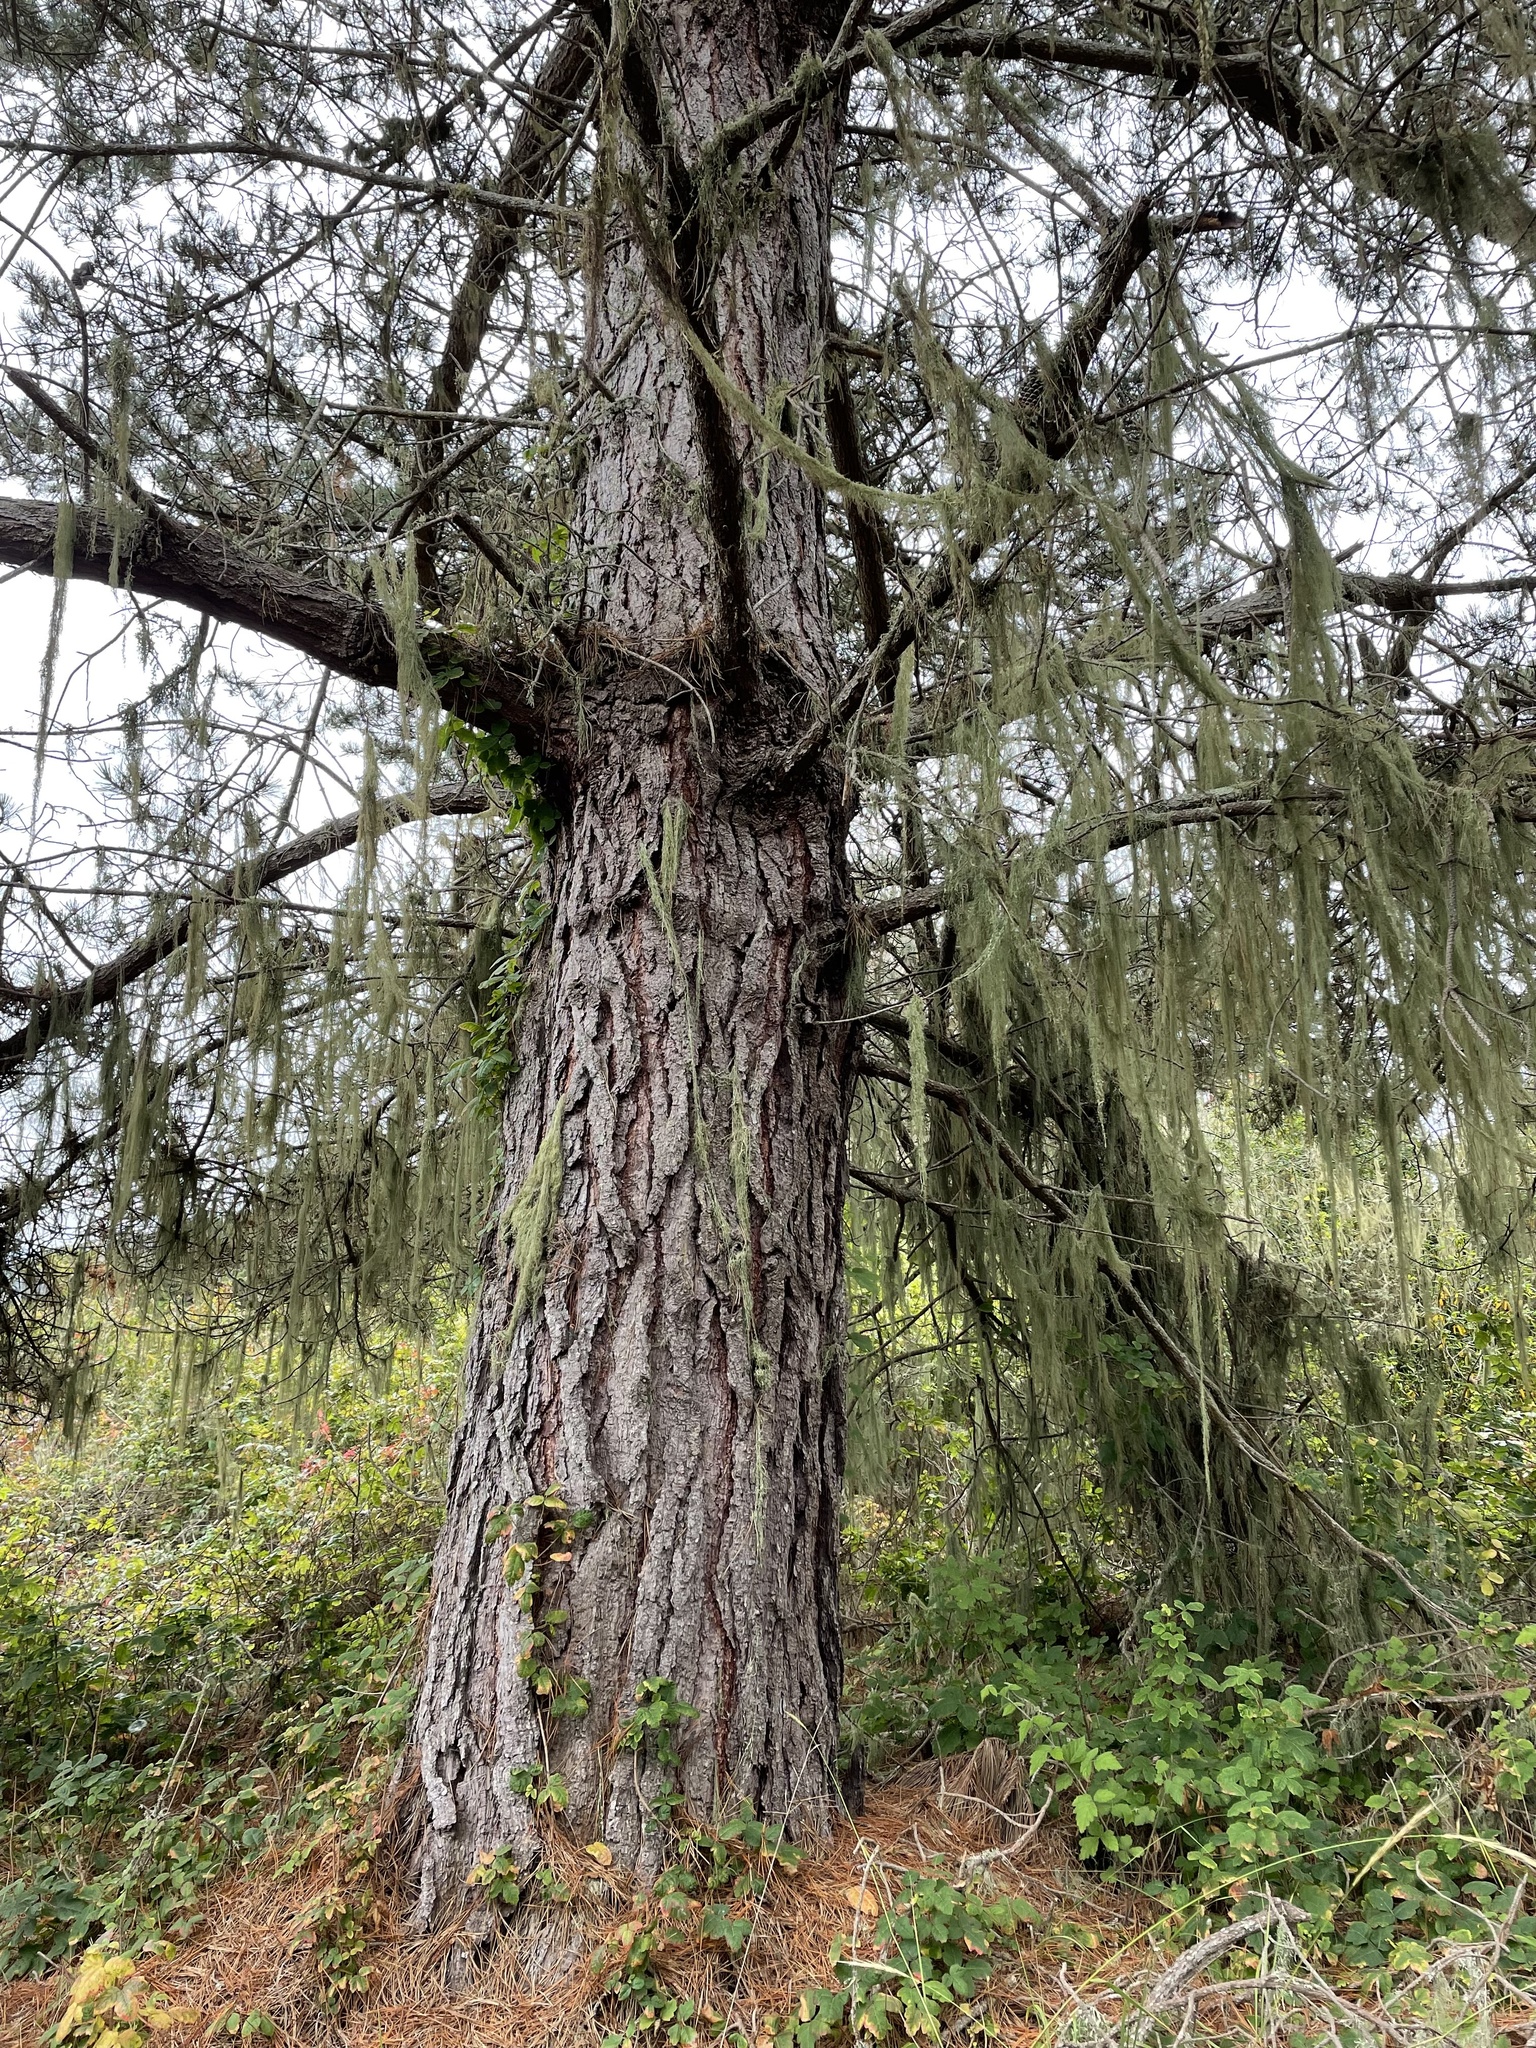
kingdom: Plantae
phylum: Tracheophyta
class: Pinopsida
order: Pinales
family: Pinaceae
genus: Pinus
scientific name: Pinus radiata
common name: Monterey pine
